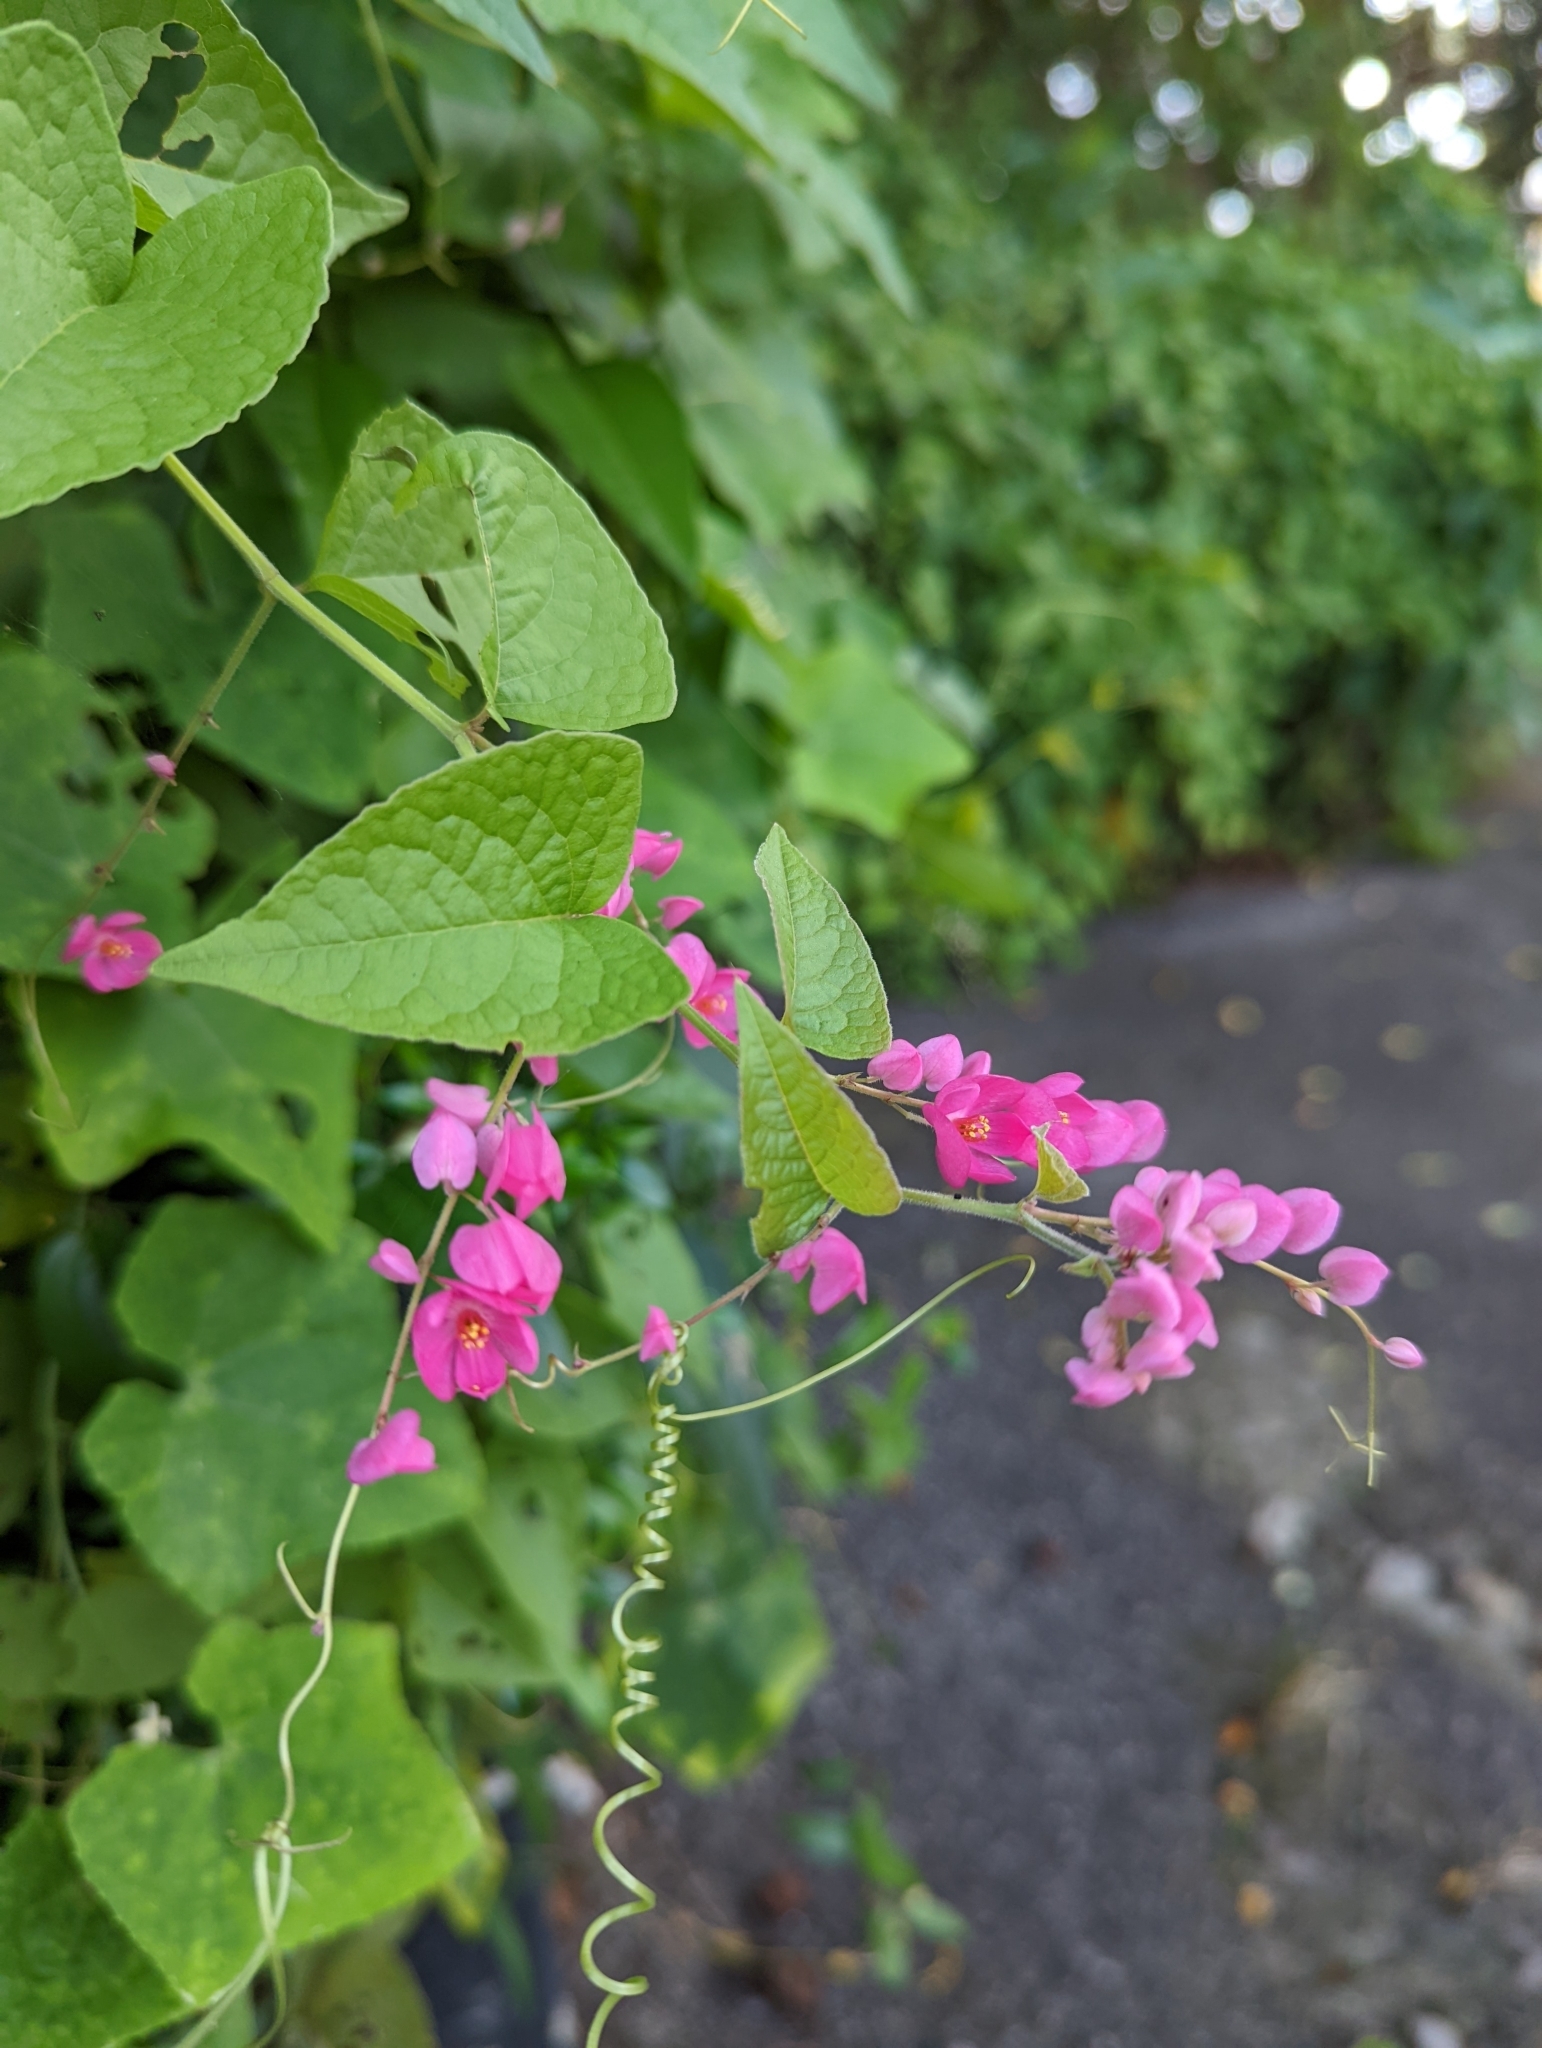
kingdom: Plantae
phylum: Tracheophyta
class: Magnoliopsida
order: Caryophyllales
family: Polygonaceae
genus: Antigonon
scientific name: Antigonon leptopus
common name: Coral vine
